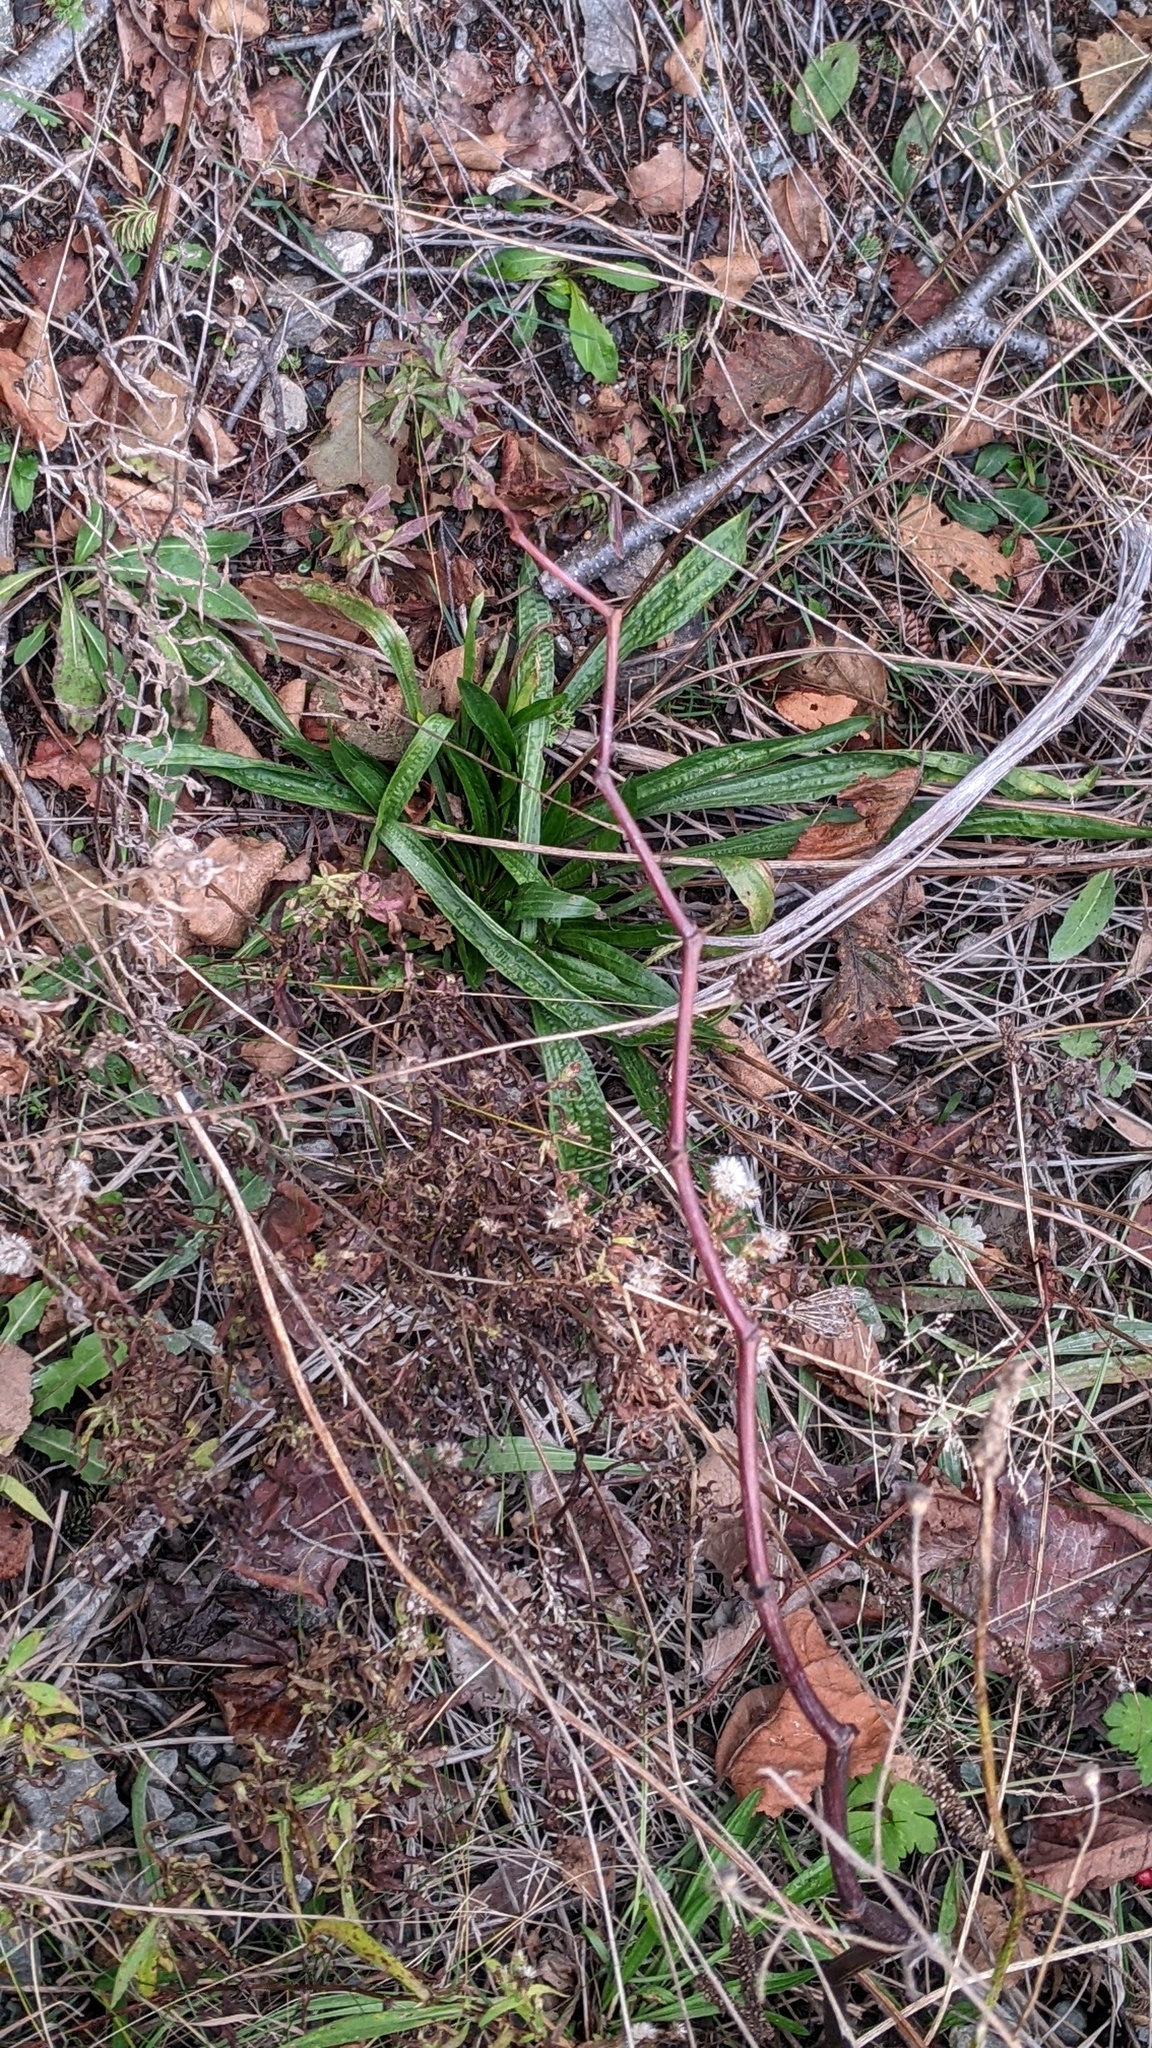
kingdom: Plantae
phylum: Tracheophyta
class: Magnoliopsida
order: Lamiales
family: Plantaginaceae
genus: Plantago
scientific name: Plantago lanceolata
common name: Ribwort plantain
